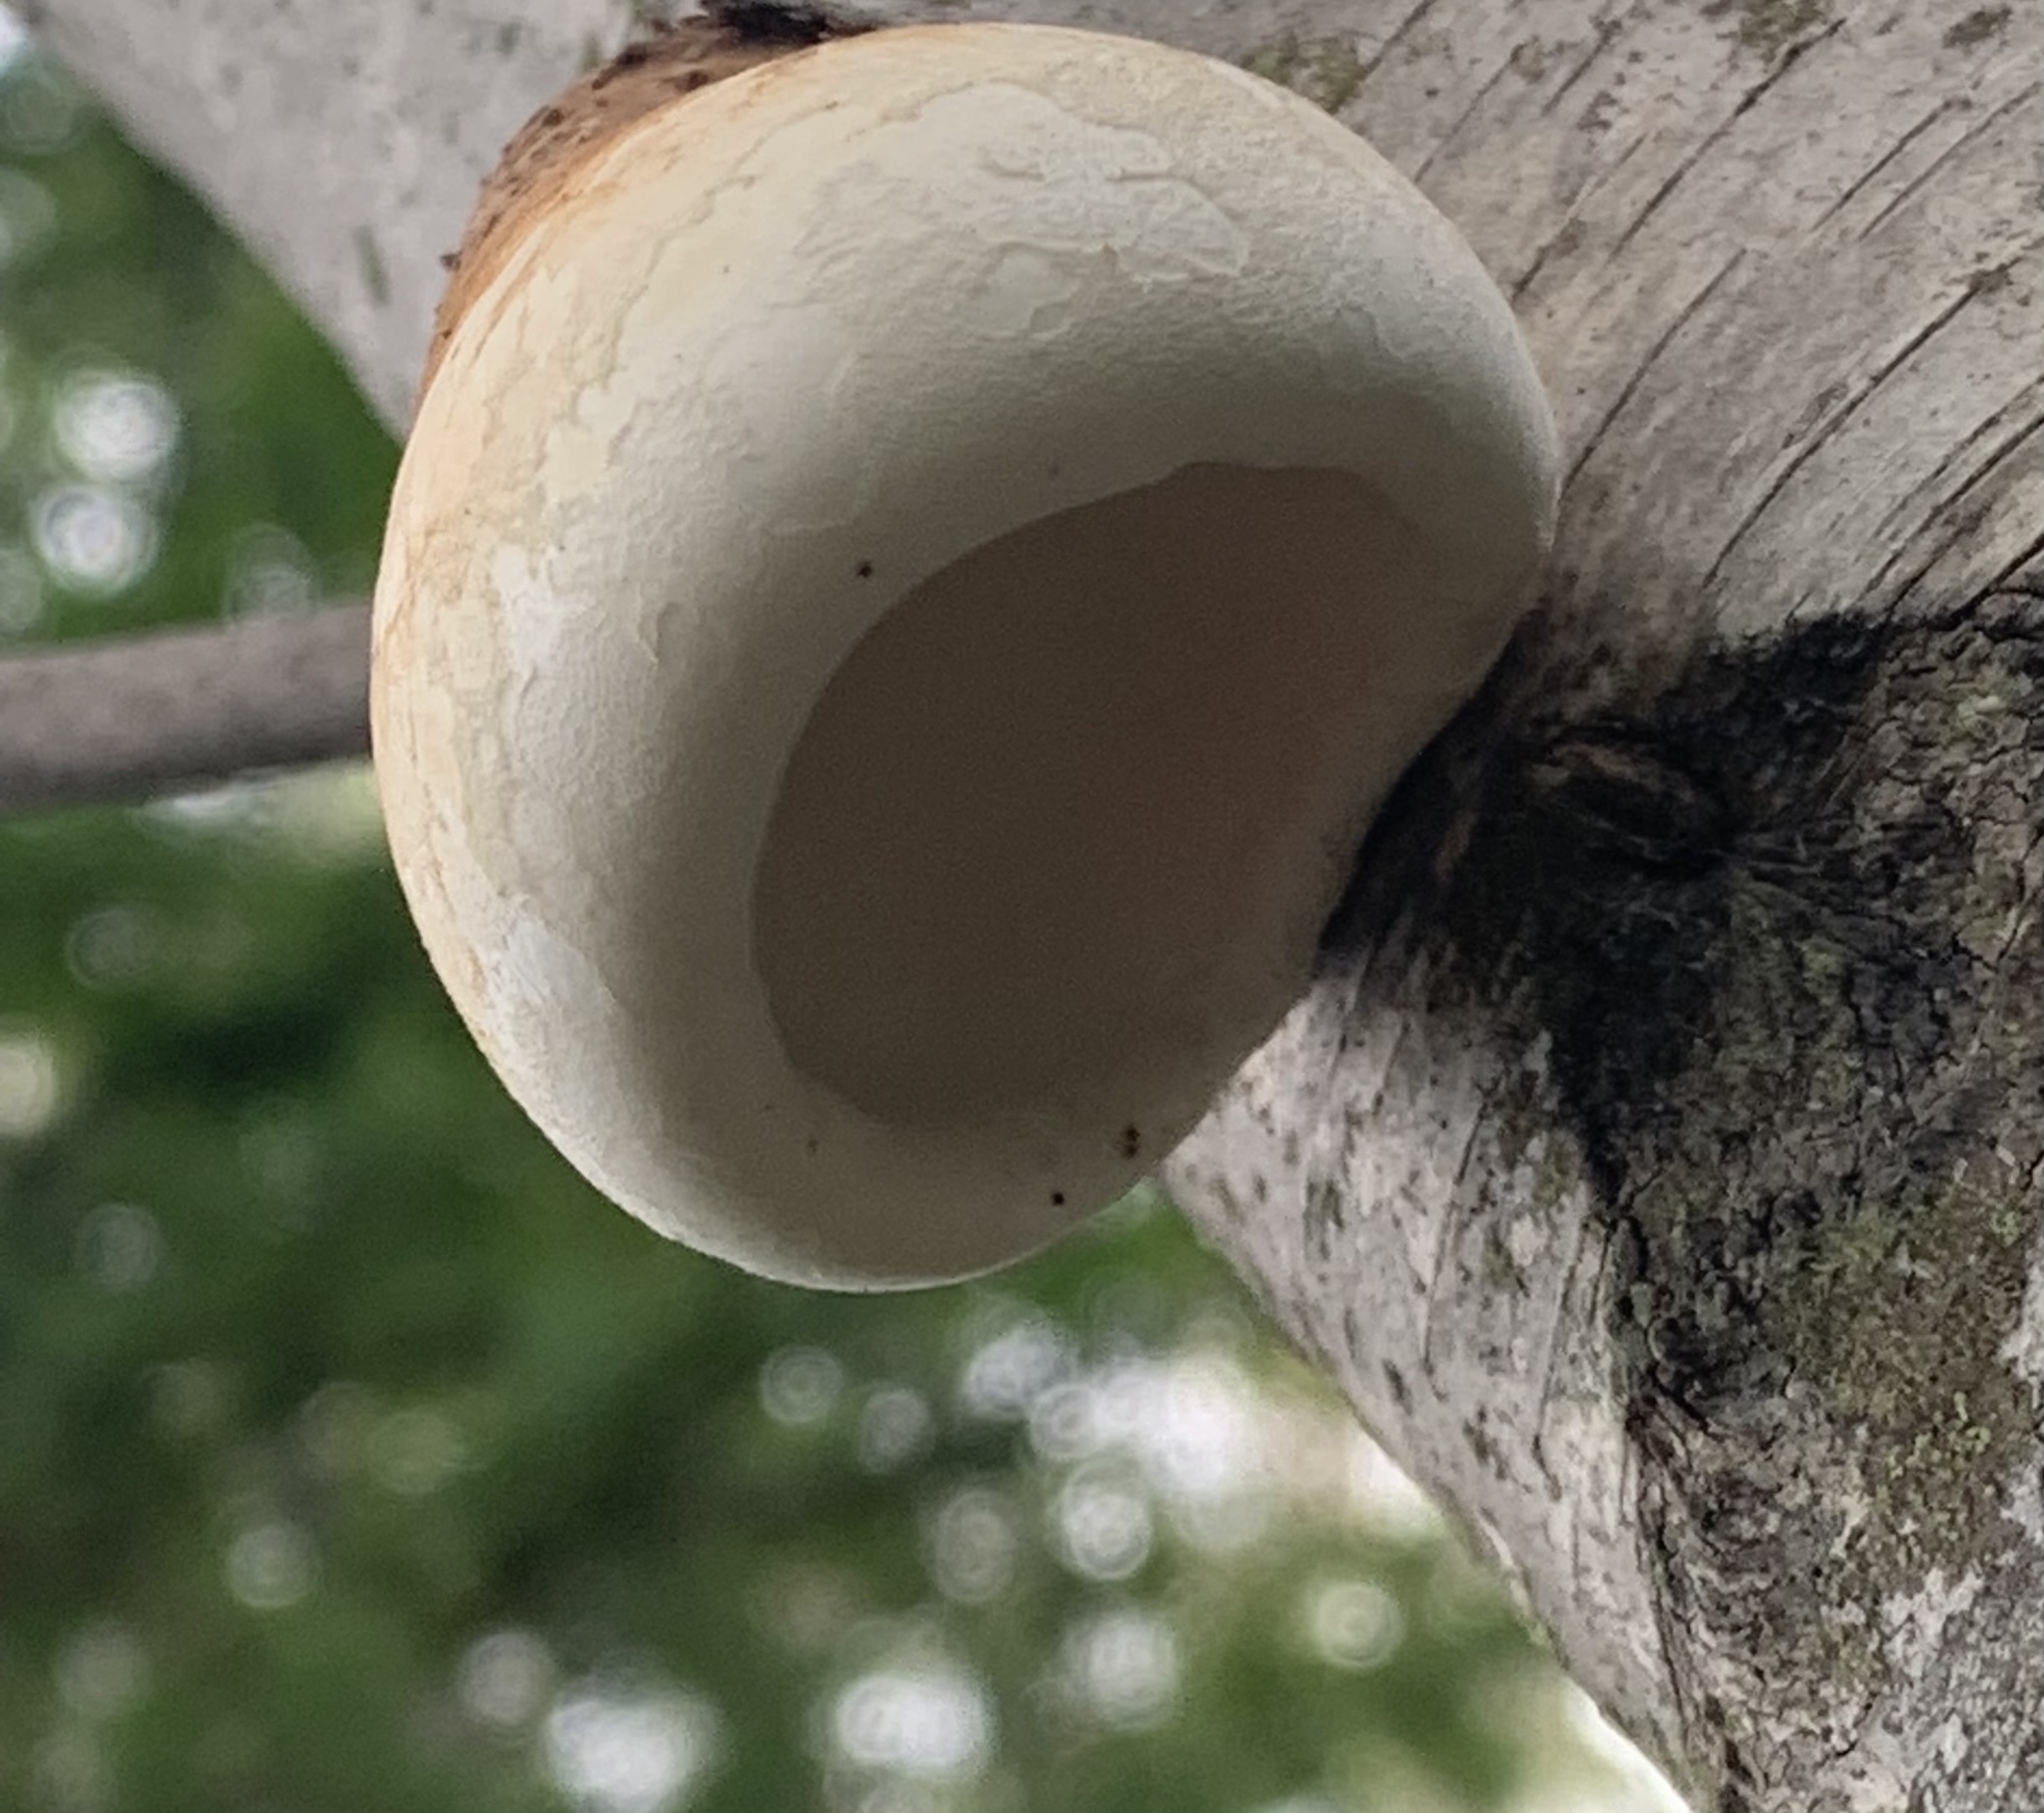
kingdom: Fungi
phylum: Basidiomycota
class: Agaricomycetes
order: Polyporales
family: Fomitopsidaceae
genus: Fomitopsis
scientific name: Fomitopsis betulina
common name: Birch polypore
